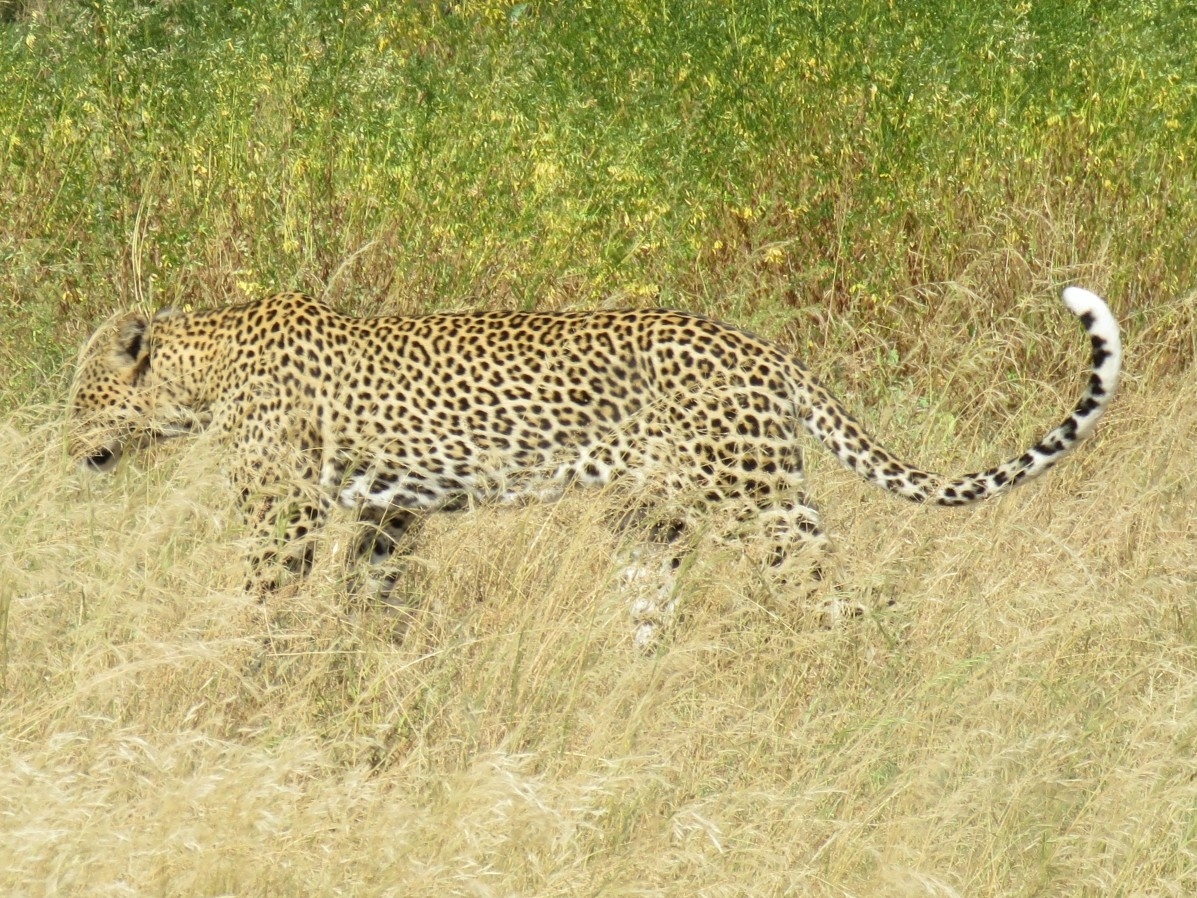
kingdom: Animalia
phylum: Chordata
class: Mammalia
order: Carnivora
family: Felidae
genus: Panthera
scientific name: Panthera pardus
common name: Leopard
